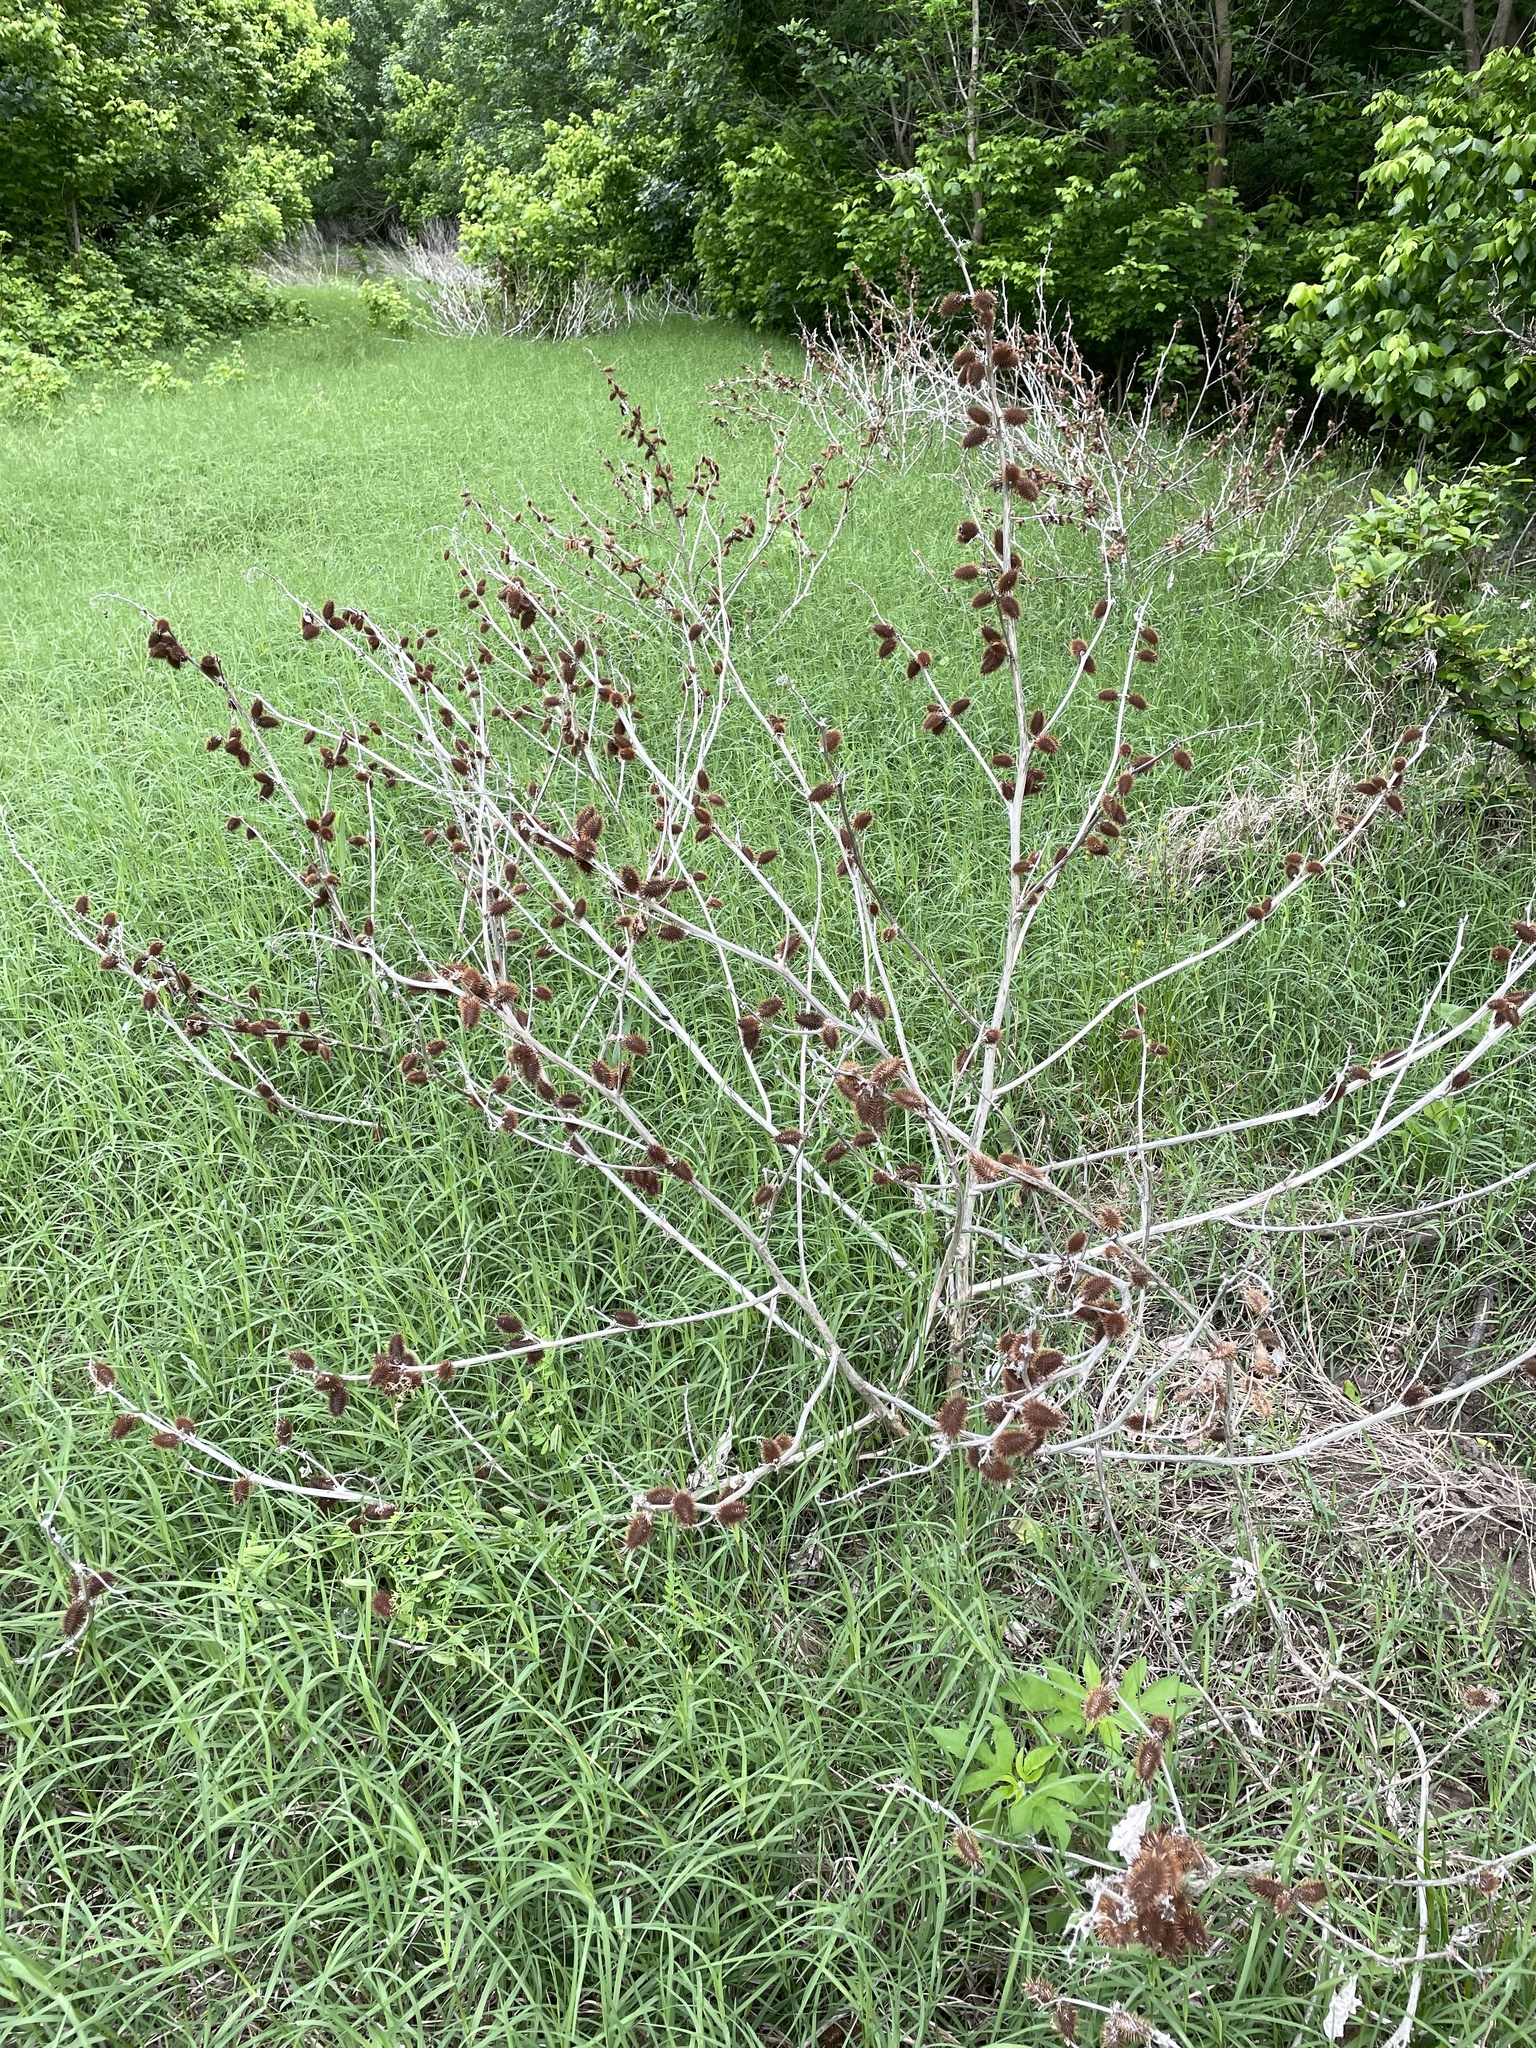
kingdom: Plantae
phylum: Tracheophyta
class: Magnoliopsida
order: Asterales
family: Asteraceae
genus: Xanthium
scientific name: Xanthium strumarium
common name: Rough cocklebur
